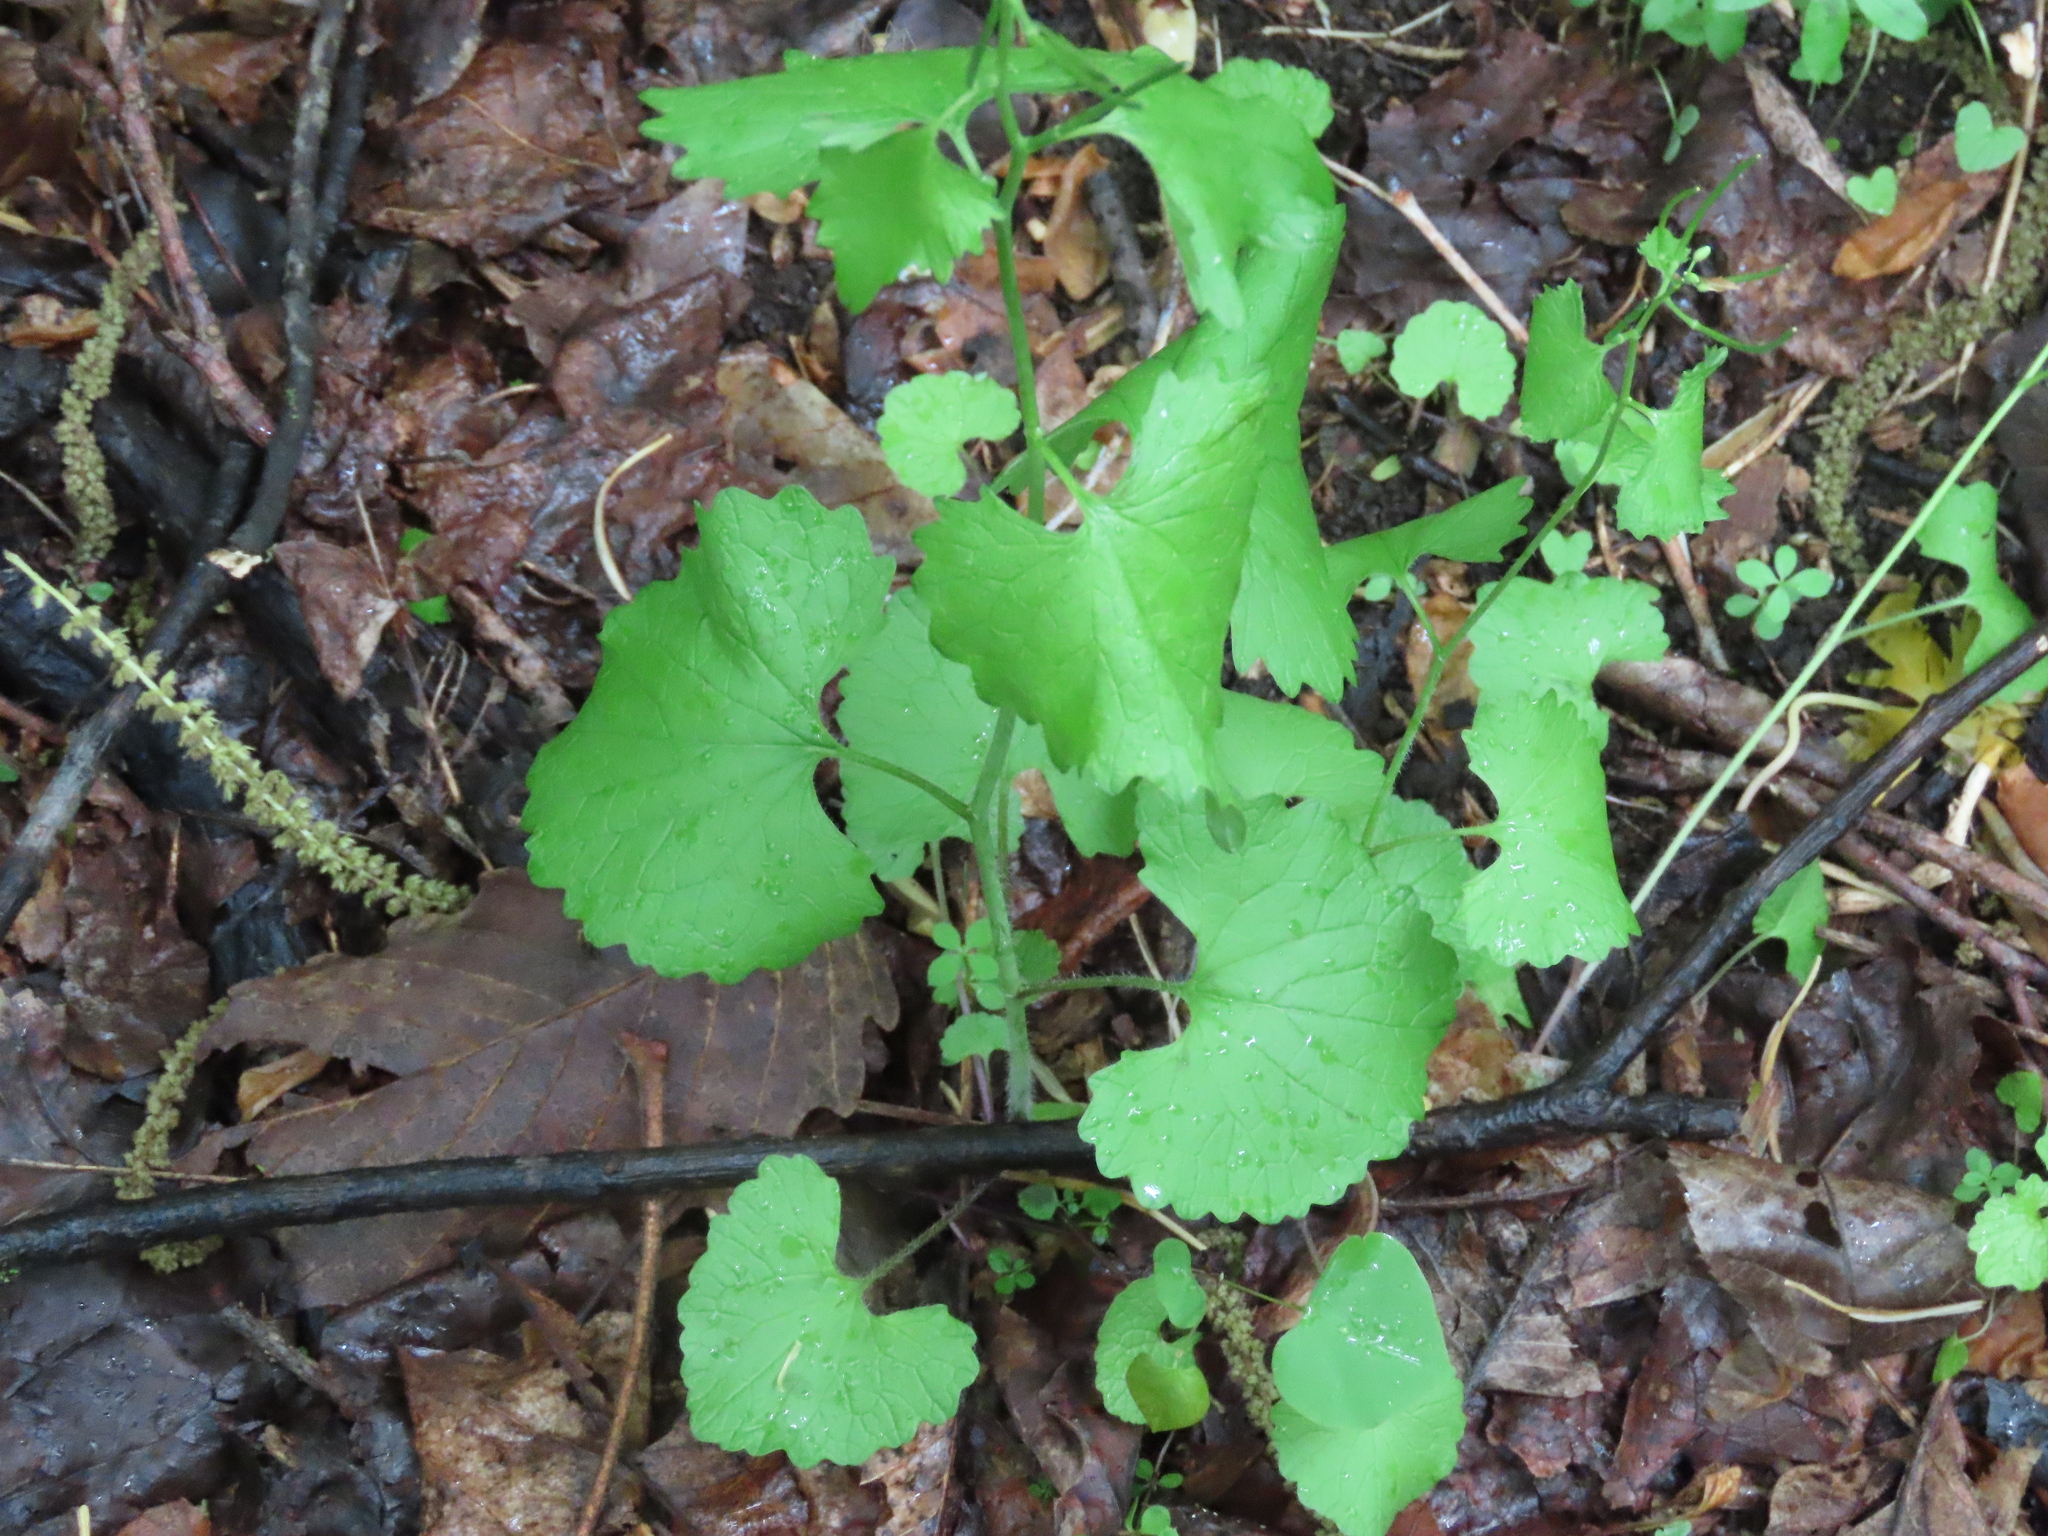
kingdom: Plantae
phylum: Tracheophyta
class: Magnoliopsida
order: Brassicales
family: Brassicaceae
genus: Alliaria
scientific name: Alliaria petiolata
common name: Garlic mustard
